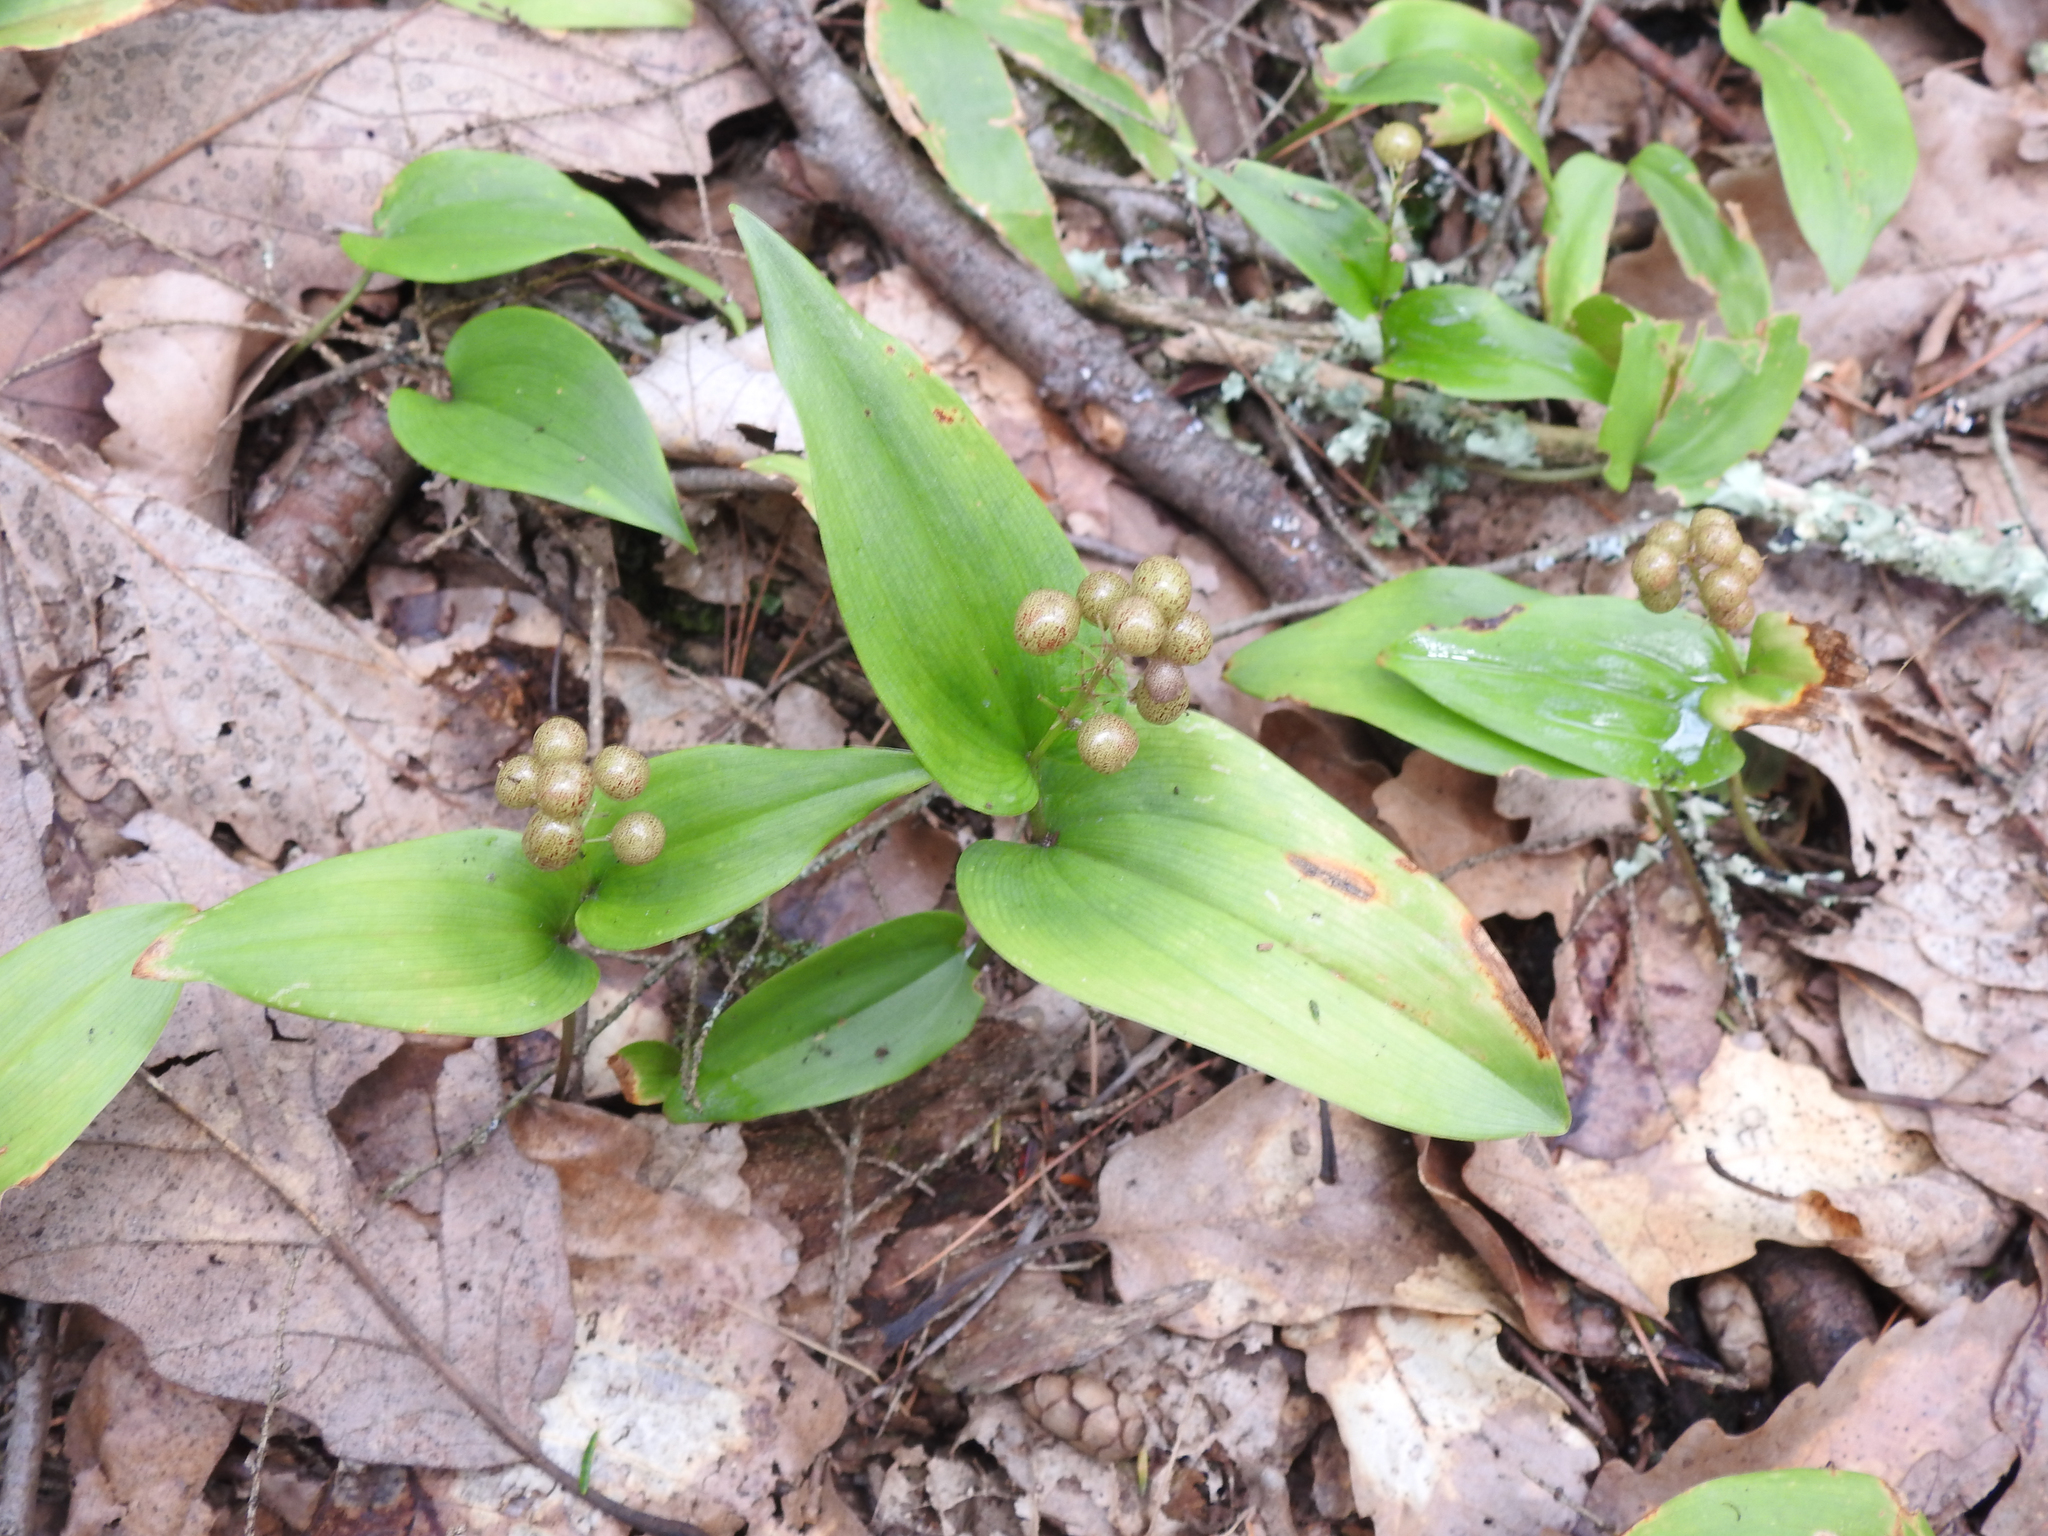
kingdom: Plantae
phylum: Tracheophyta
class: Liliopsida
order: Asparagales
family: Asparagaceae
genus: Maianthemum
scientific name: Maianthemum canadense
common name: False lily-of-the-valley
